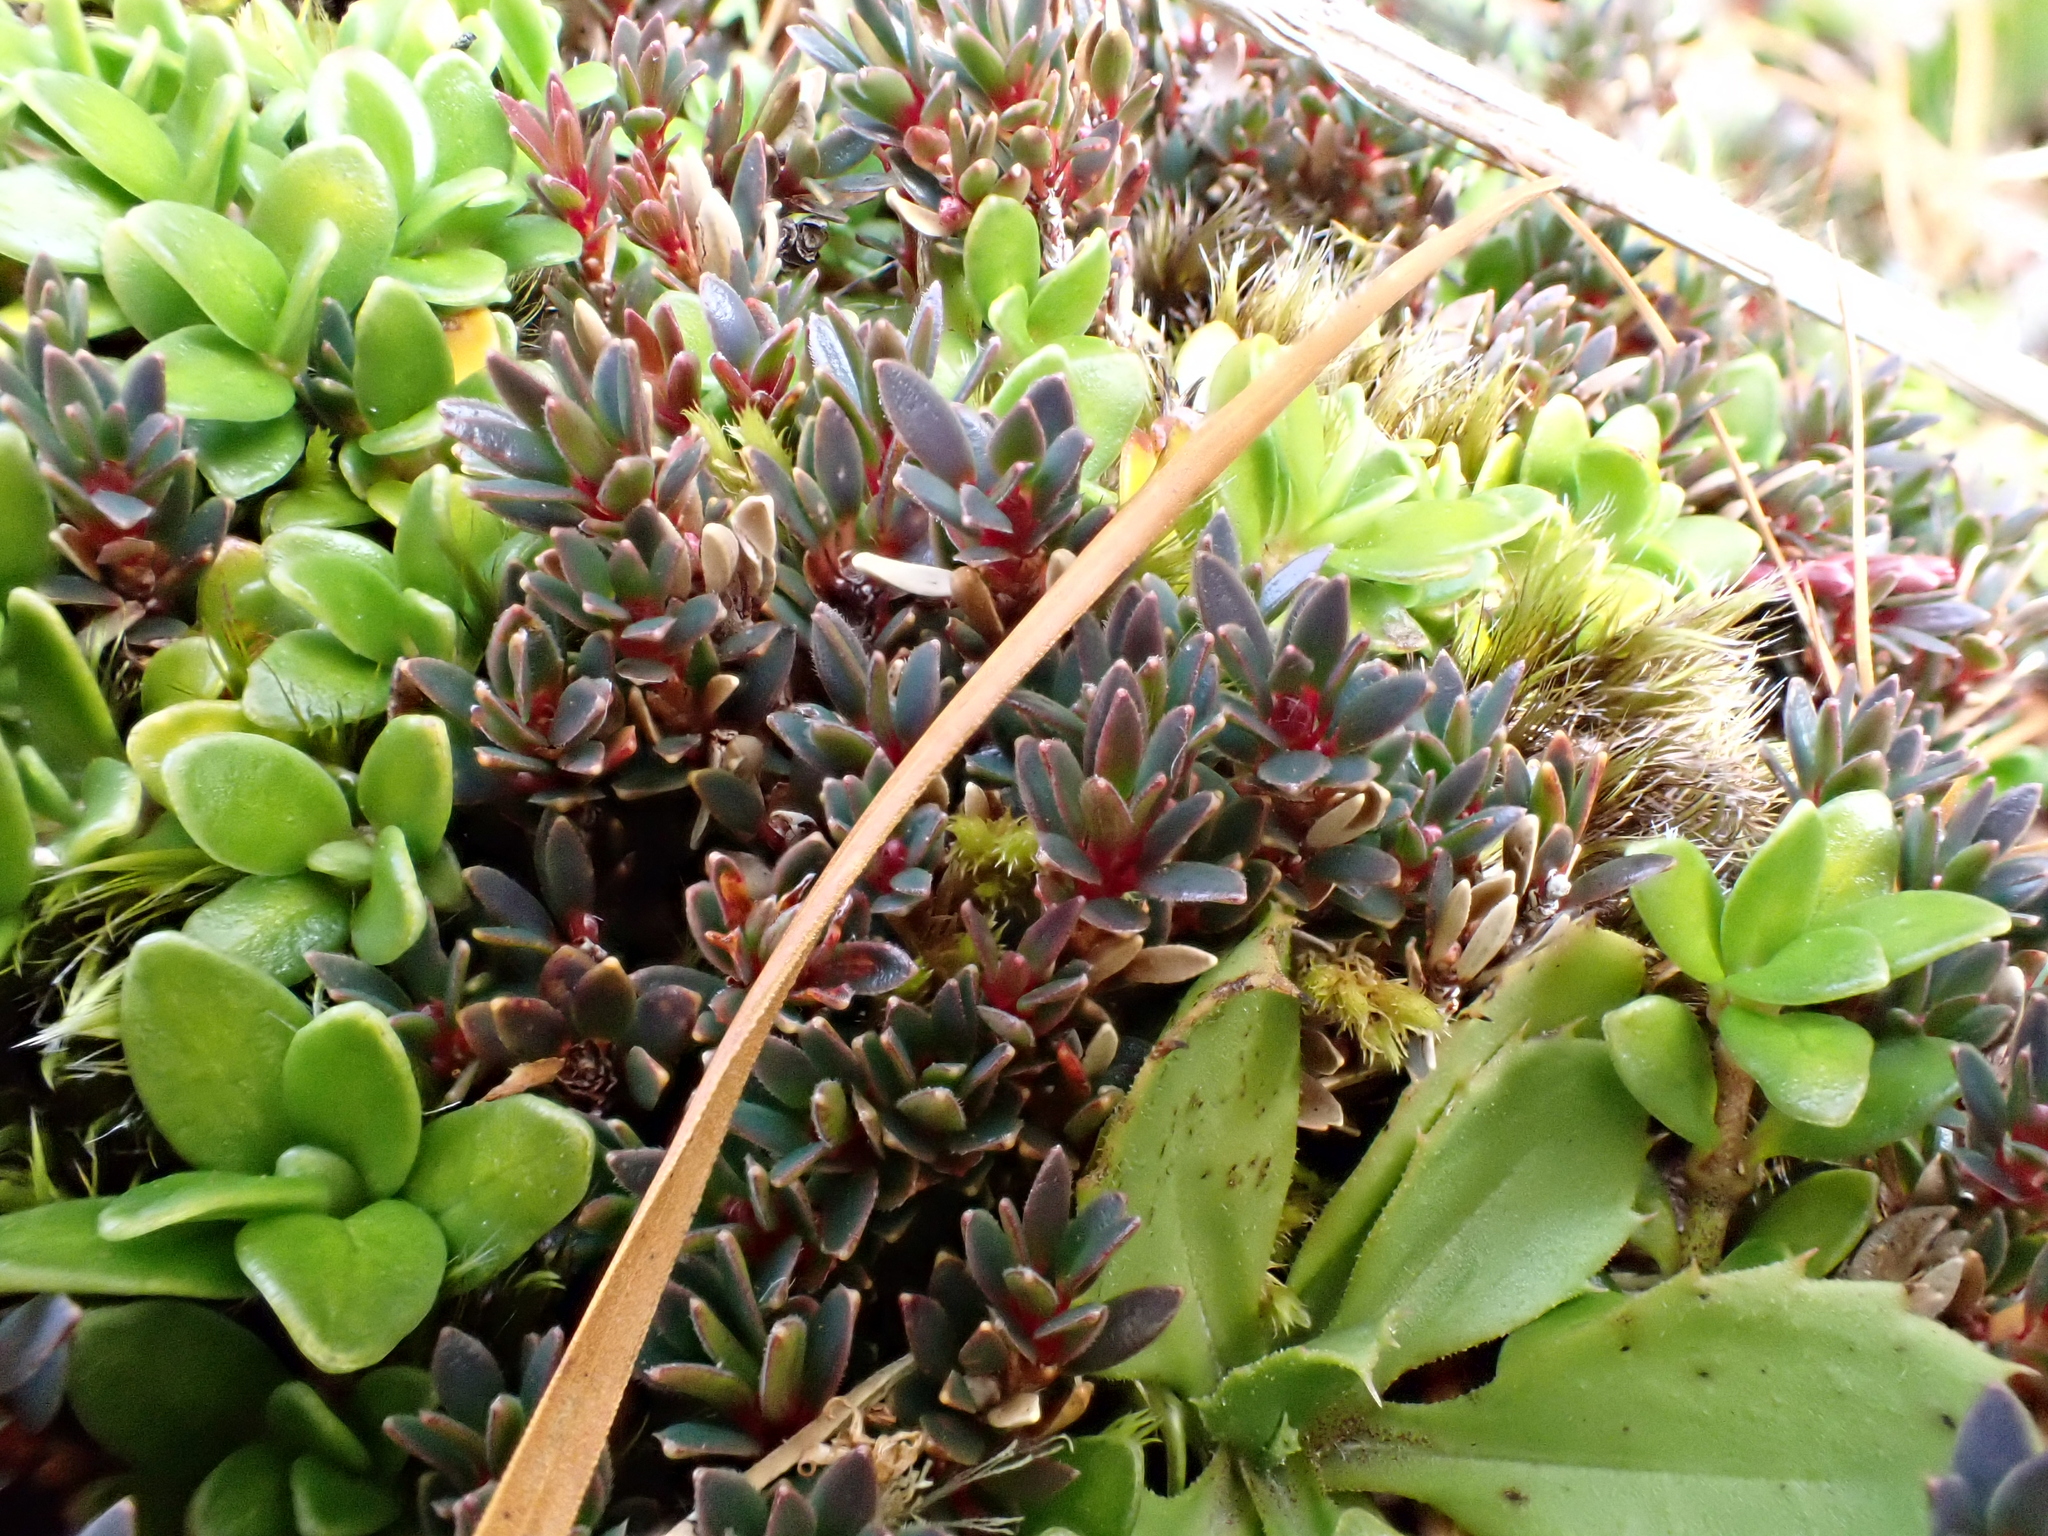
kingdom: Plantae
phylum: Tracheophyta
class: Magnoliopsida
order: Ericales
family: Ericaceae
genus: Pentachondra
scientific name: Pentachondra pumila
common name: Carpet-heath
